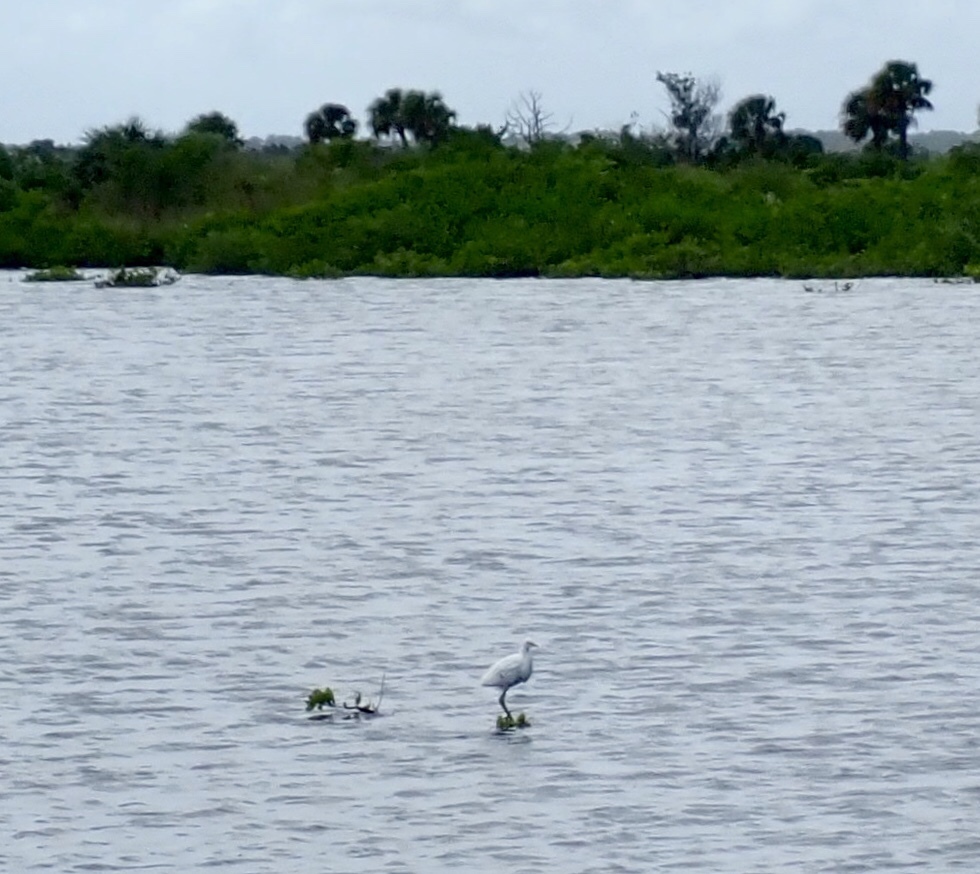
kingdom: Animalia
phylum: Chordata
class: Aves
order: Pelecaniformes
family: Ardeidae
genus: Egretta
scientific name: Egretta thula
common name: Snowy egret
